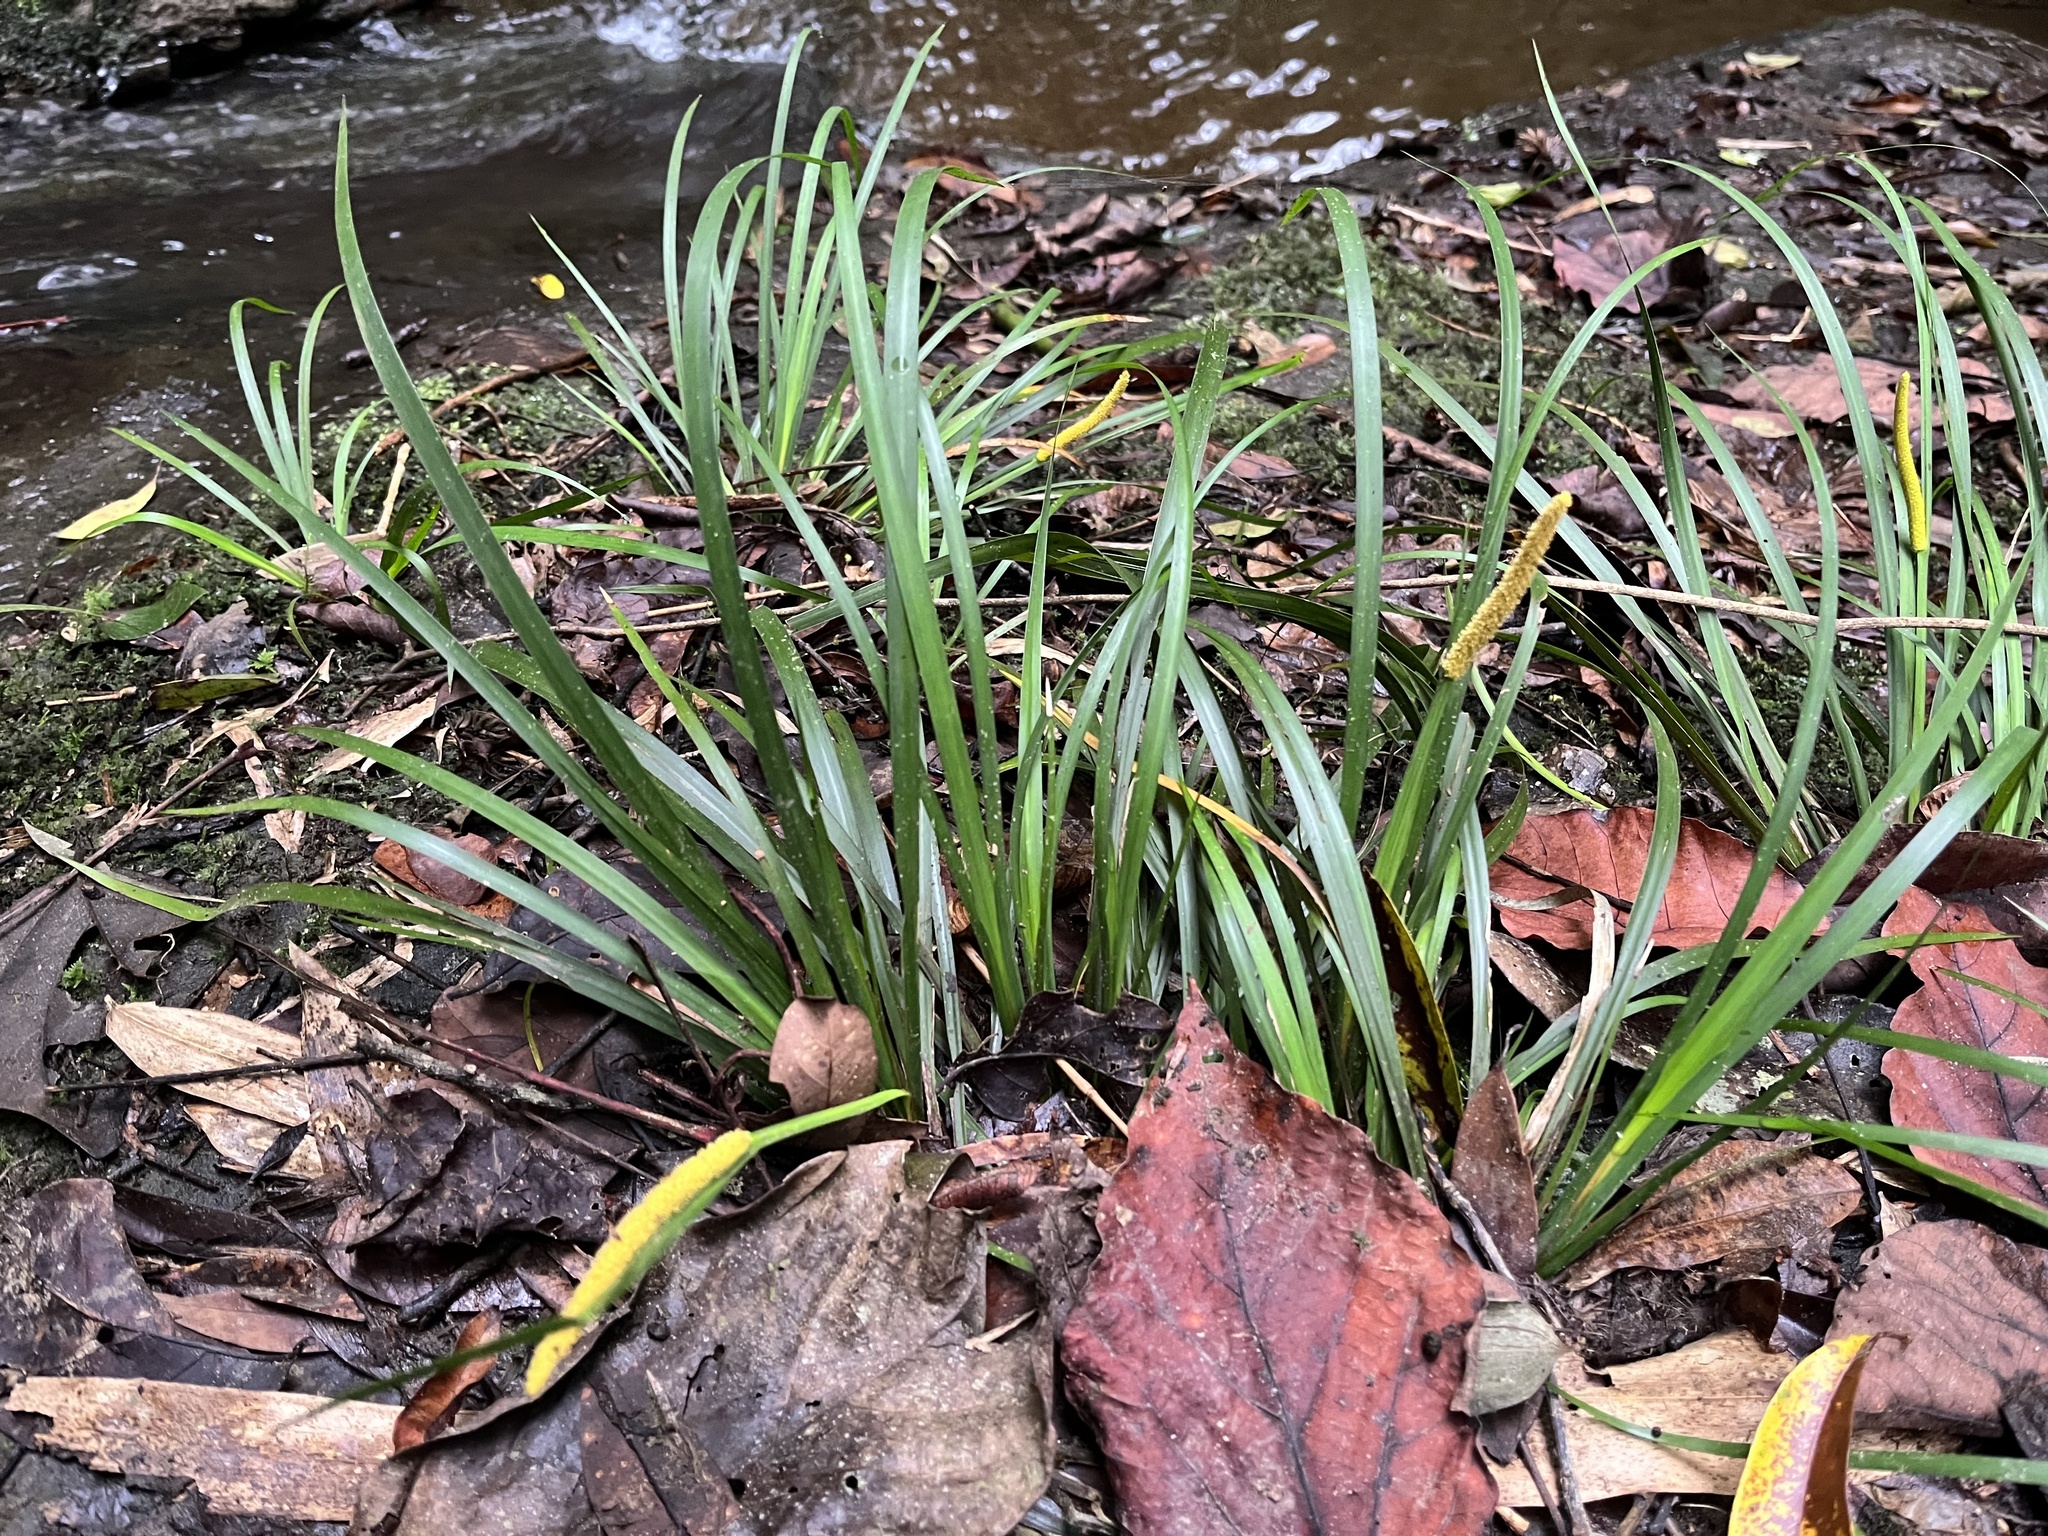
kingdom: Plantae
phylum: Tracheophyta
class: Liliopsida
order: Acorales
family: Acoraceae
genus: Acorus
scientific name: Acorus gramineus
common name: Slender sweet-flag
